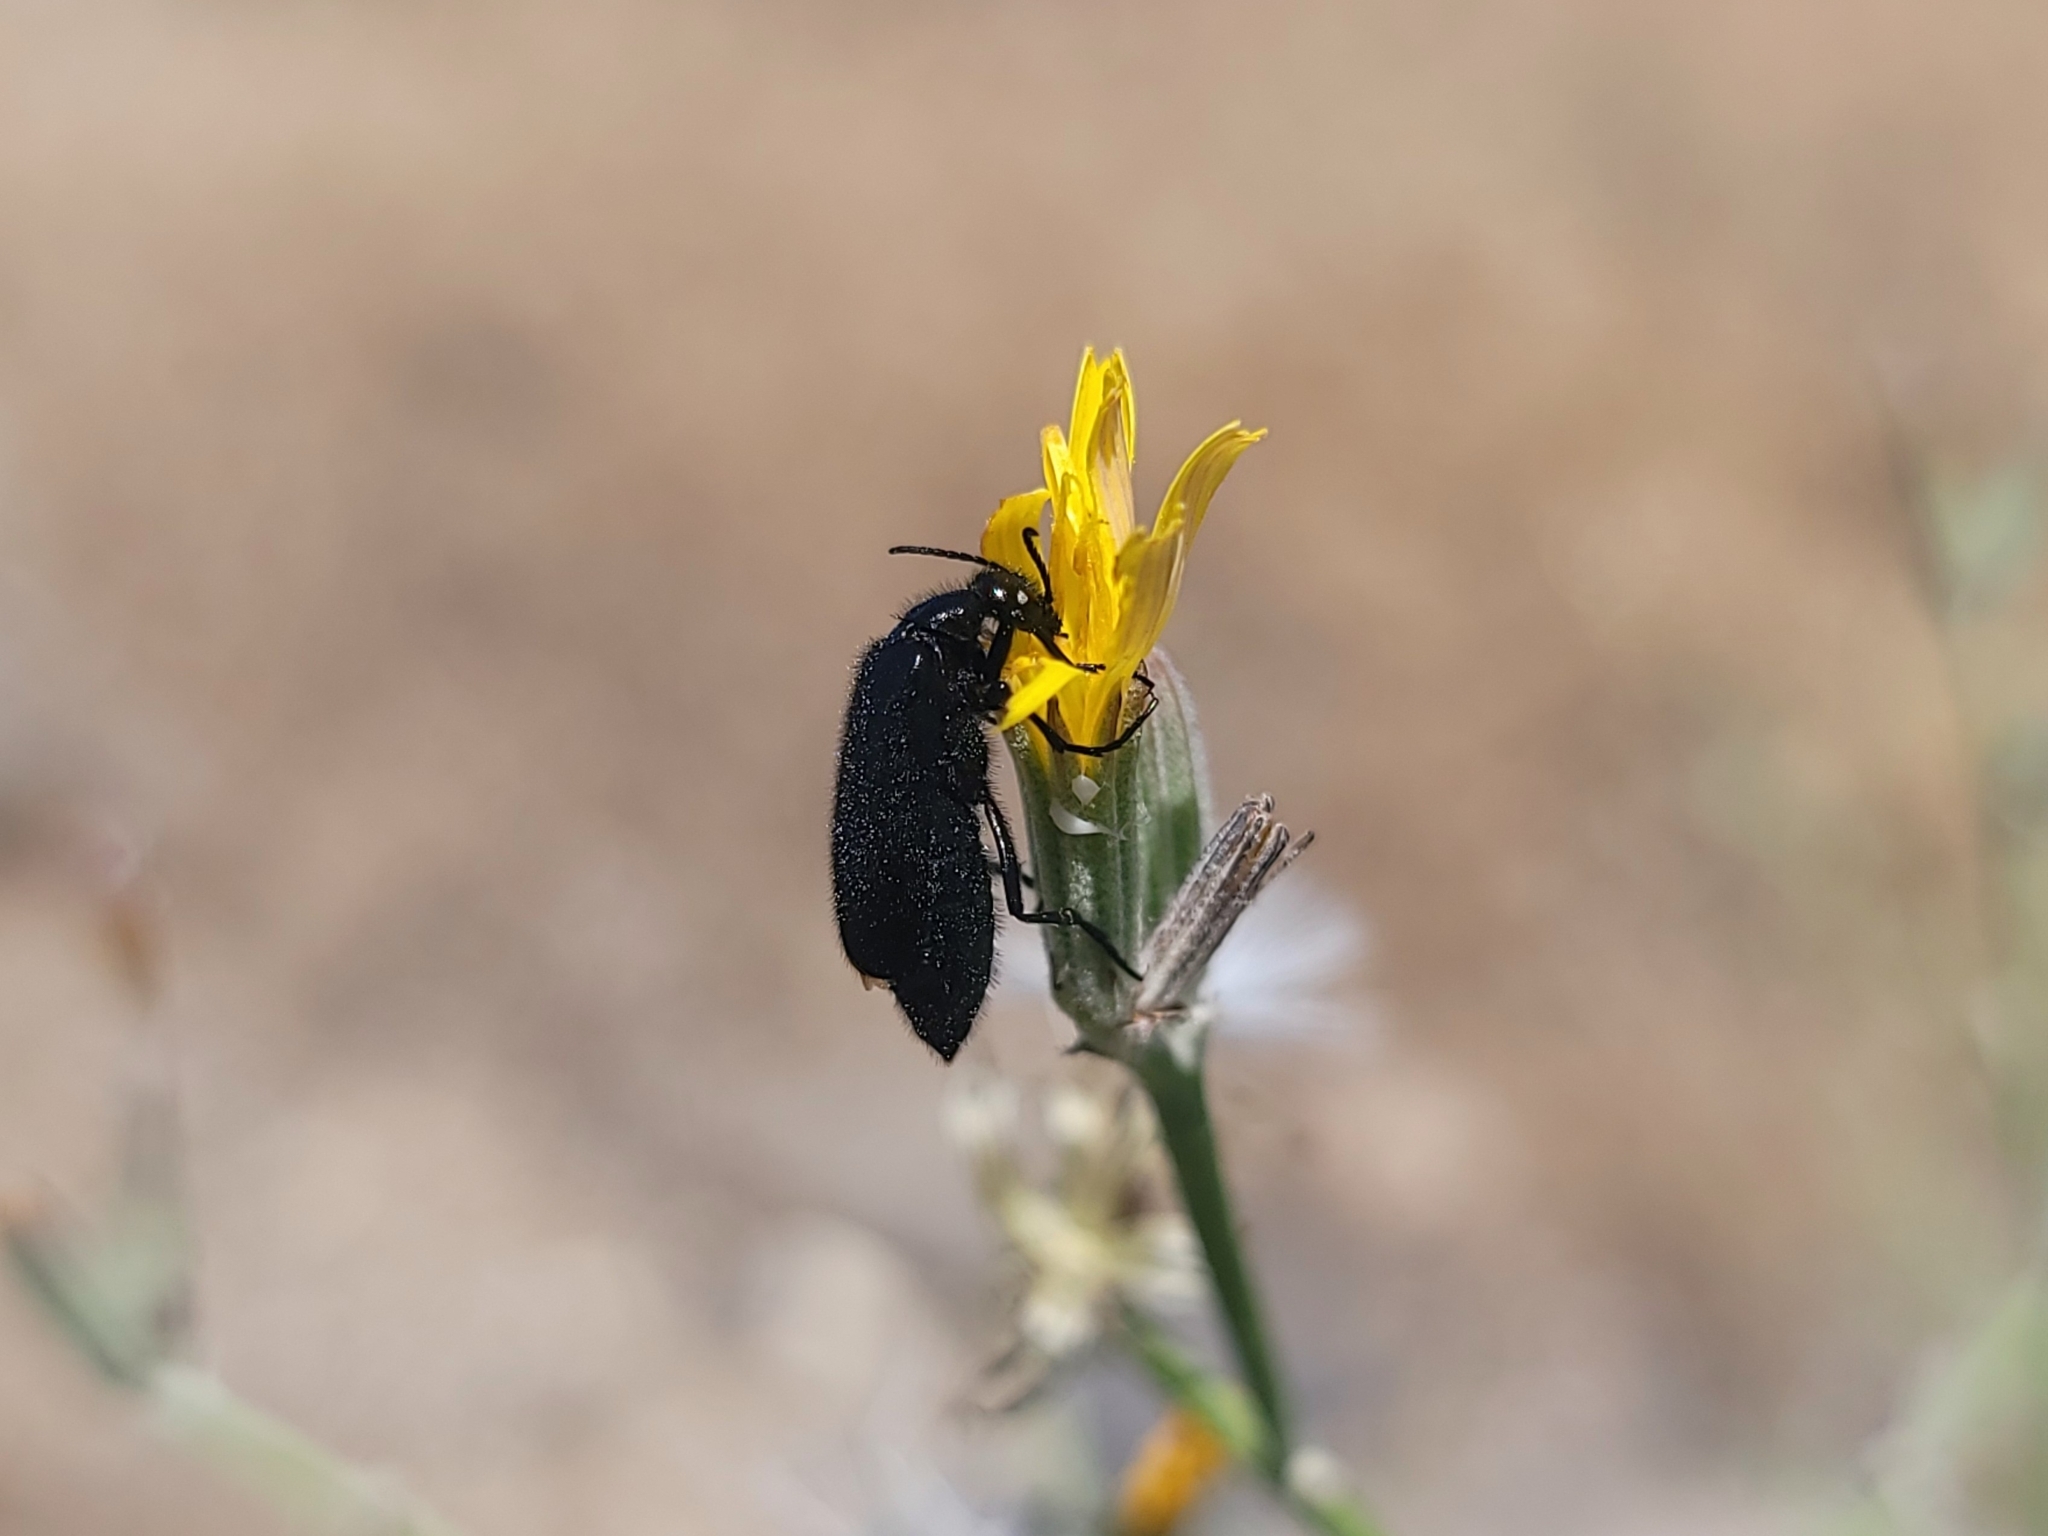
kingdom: Animalia
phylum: Arthropoda
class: Insecta
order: Coleoptera
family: Meloidae
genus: Epicauta
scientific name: Epicauta puncticollis
